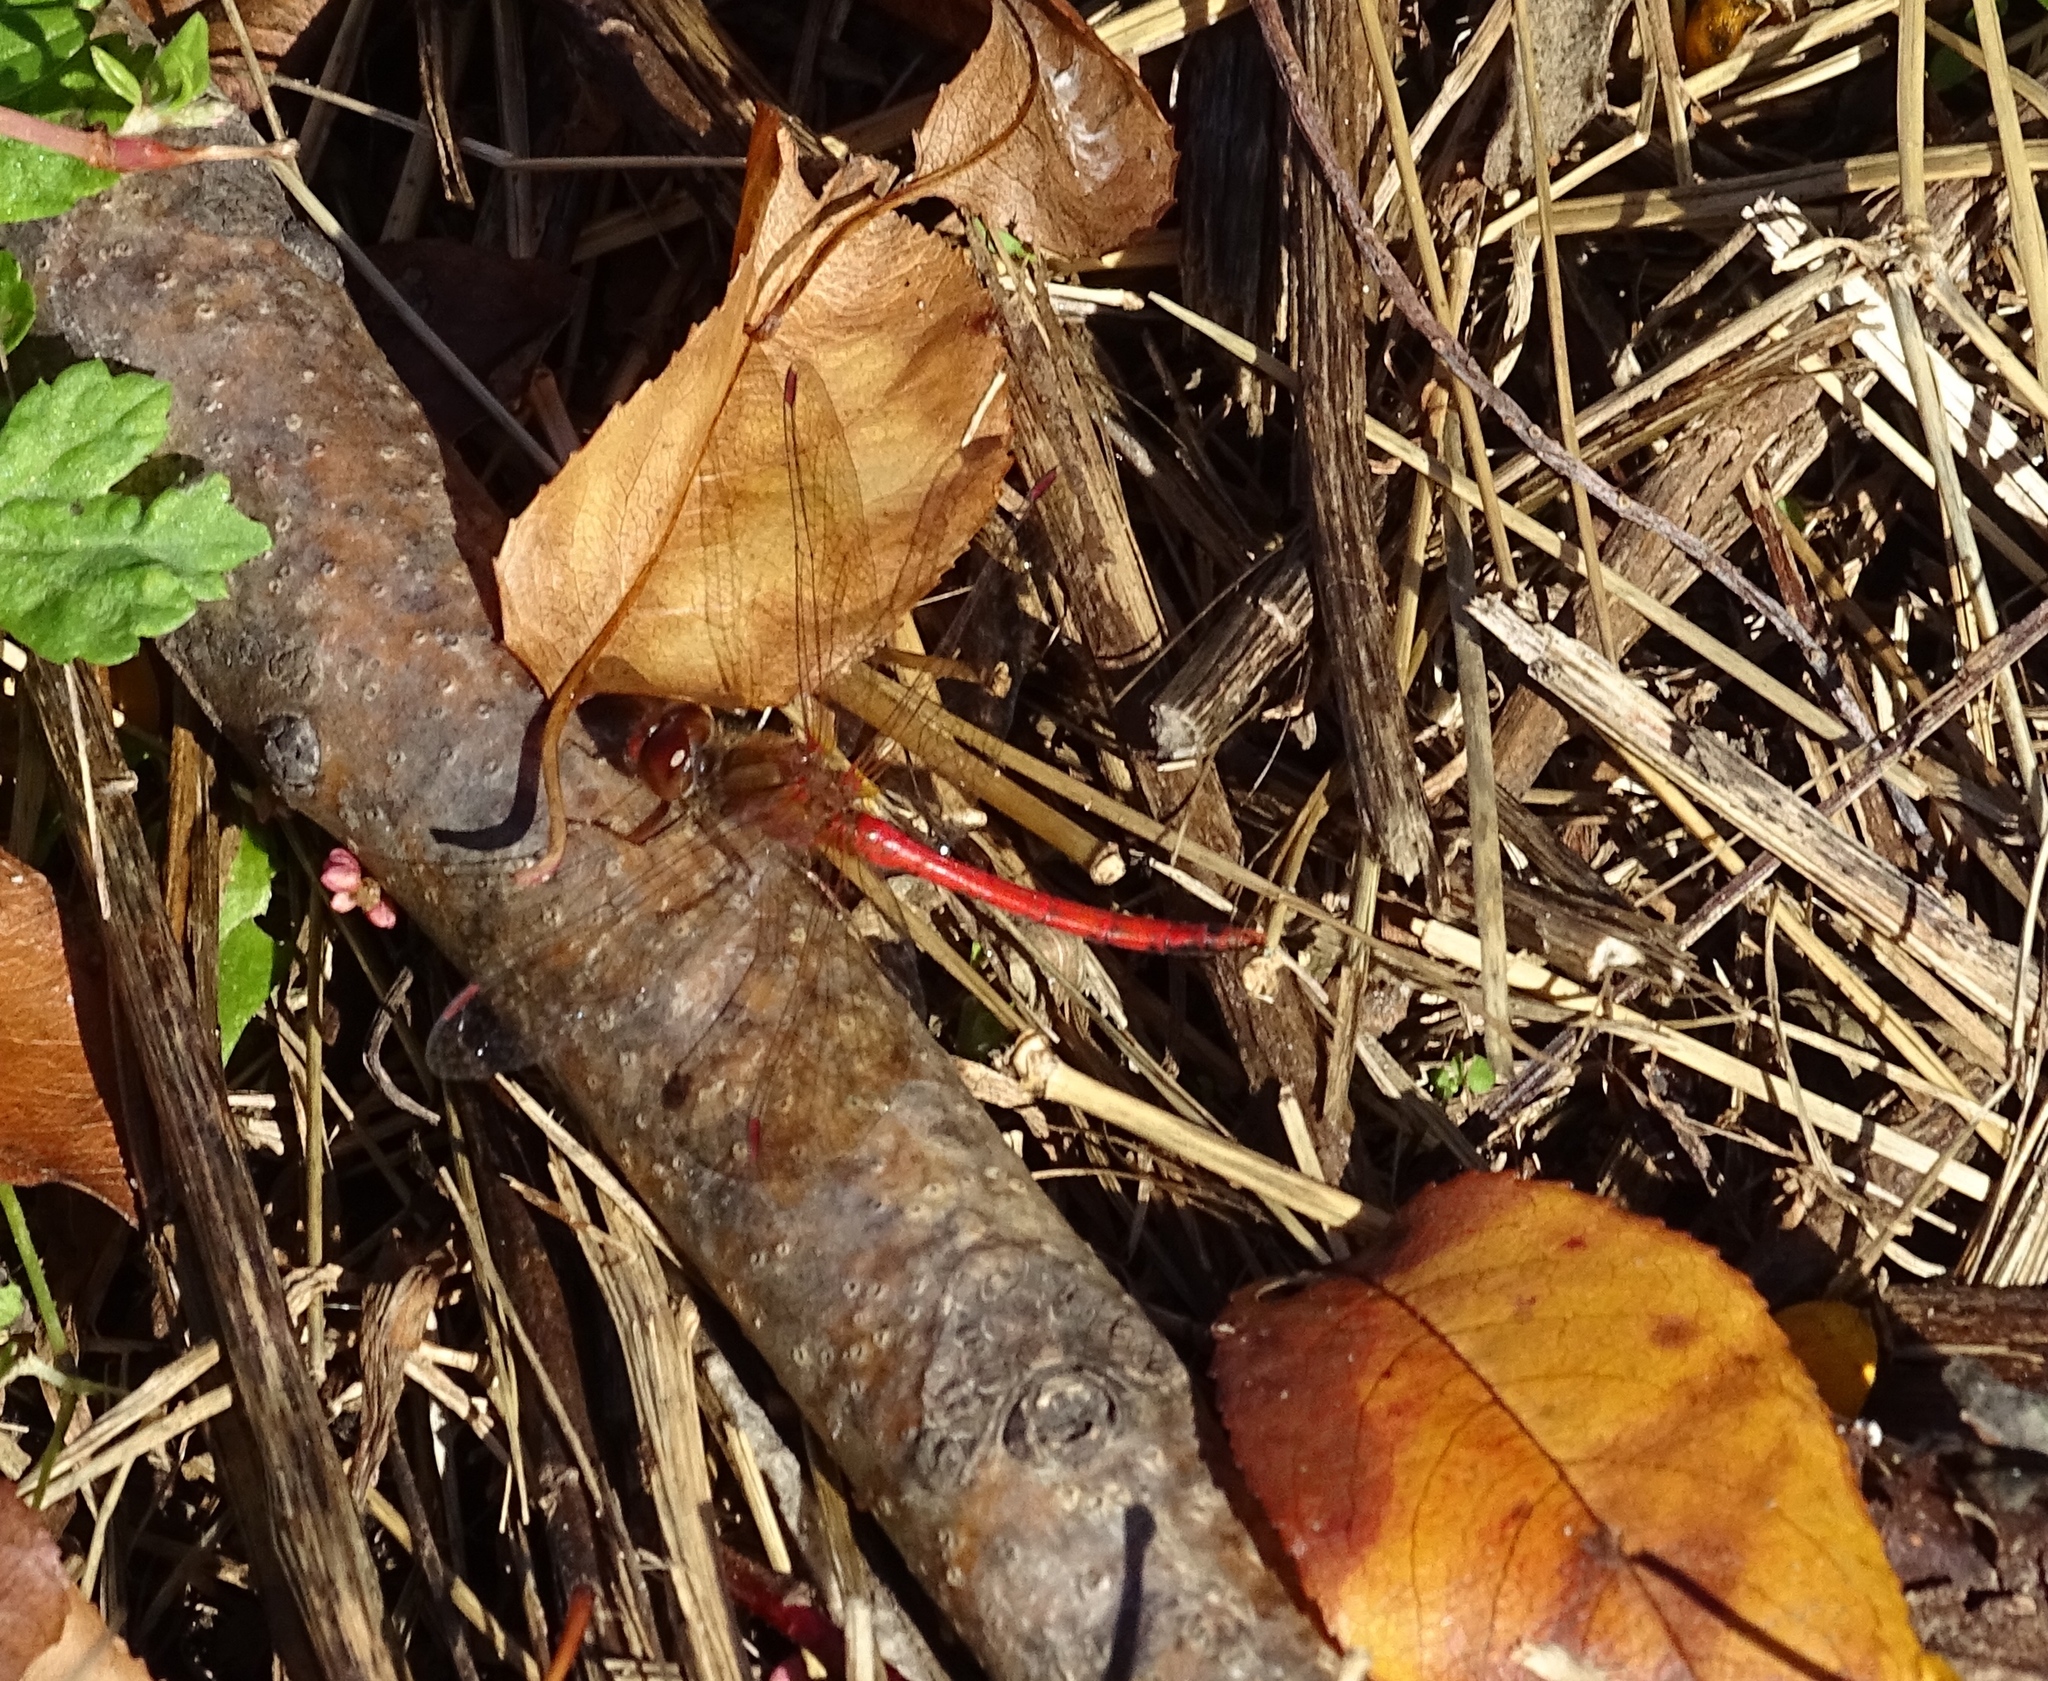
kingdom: Animalia
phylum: Arthropoda
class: Insecta
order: Odonata
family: Libellulidae
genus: Sympetrum
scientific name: Sympetrum vicinum
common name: Autumn meadowhawk
